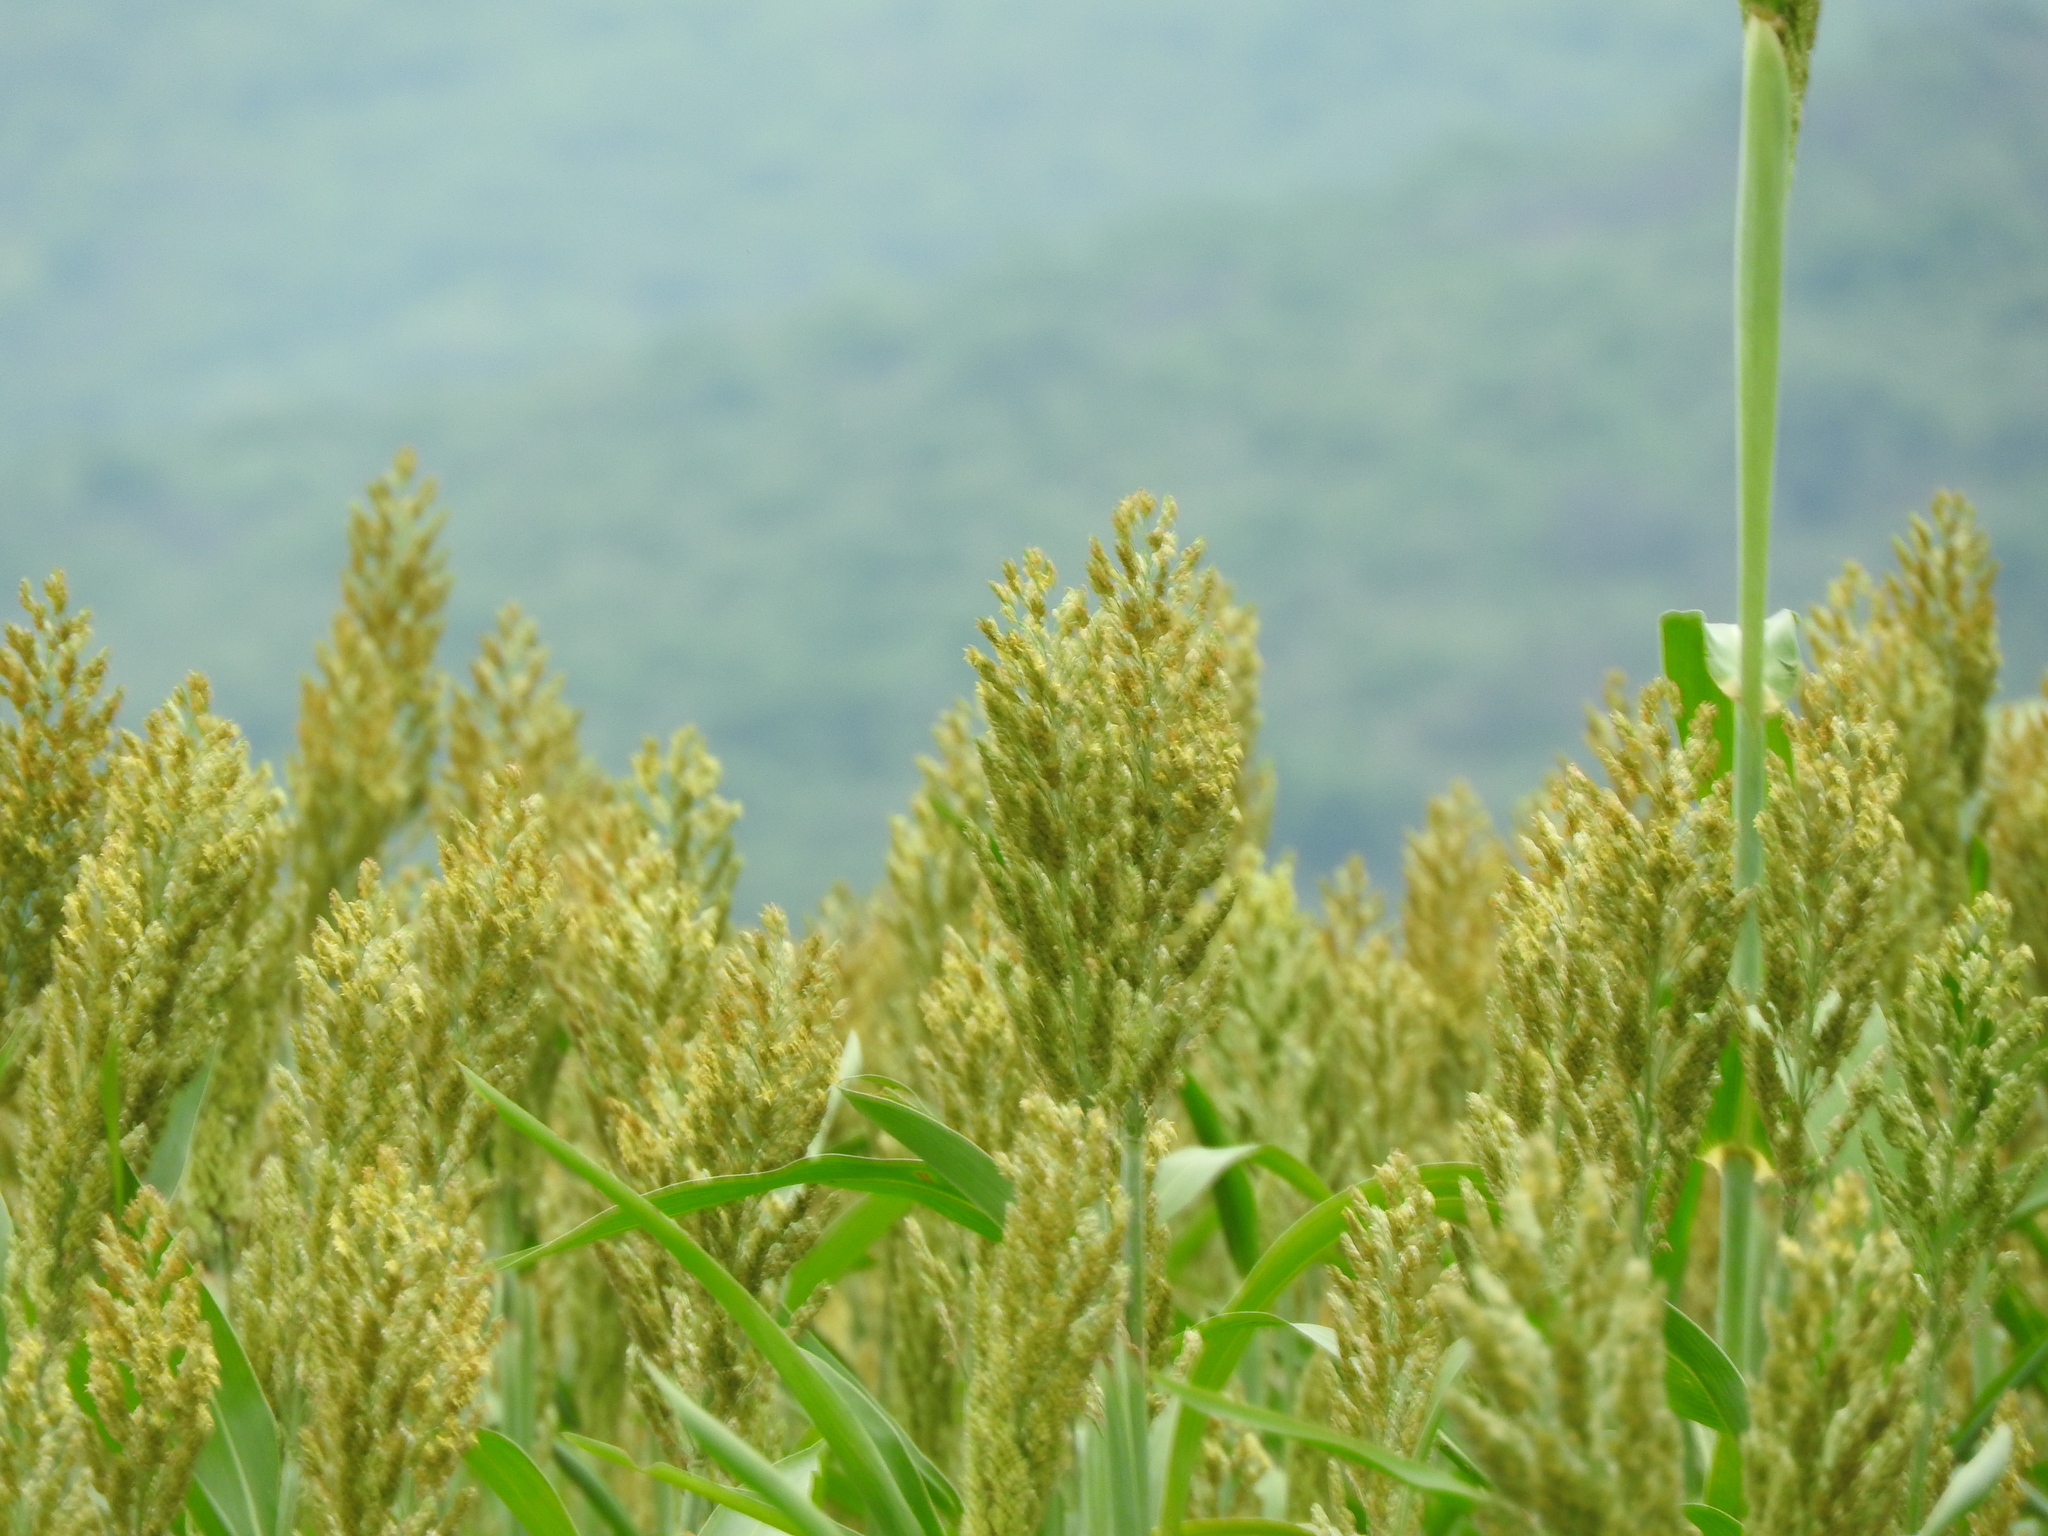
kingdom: Plantae
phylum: Tracheophyta
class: Liliopsida
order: Poales
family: Poaceae
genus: Sorghum
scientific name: Sorghum bicolor
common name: Sorghum
